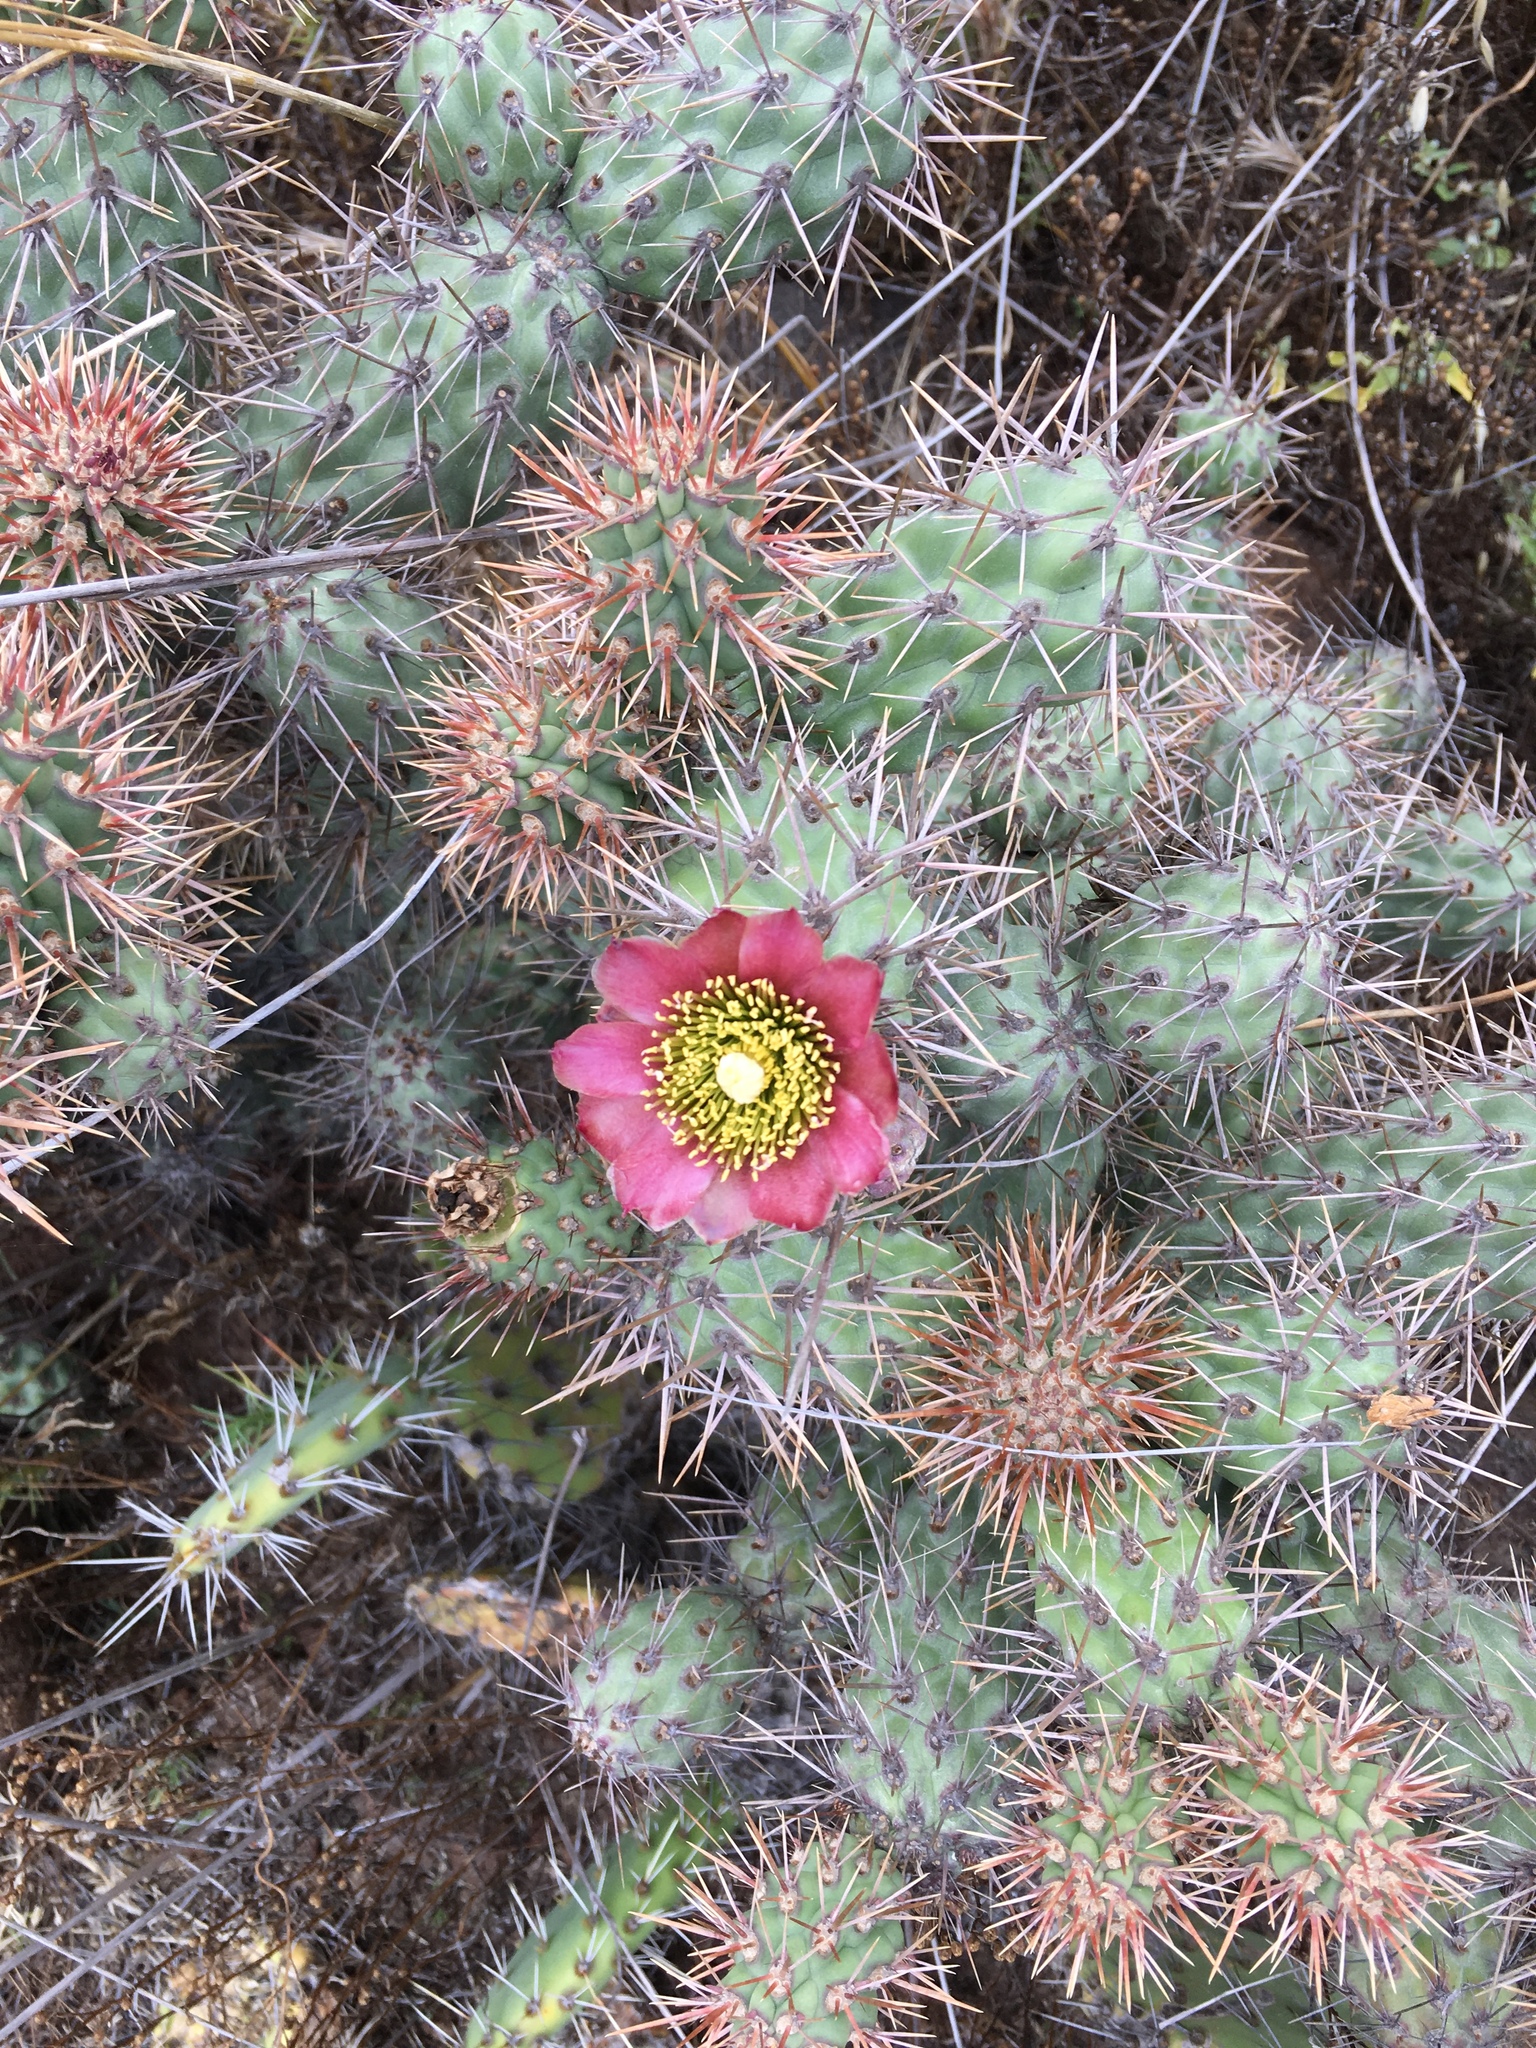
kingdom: Plantae
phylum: Tracheophyta
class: Magnoliopsida
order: Caryophyllales
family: Cactaceae
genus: Cylindropuntia
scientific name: Cylindropuntia prolifera
